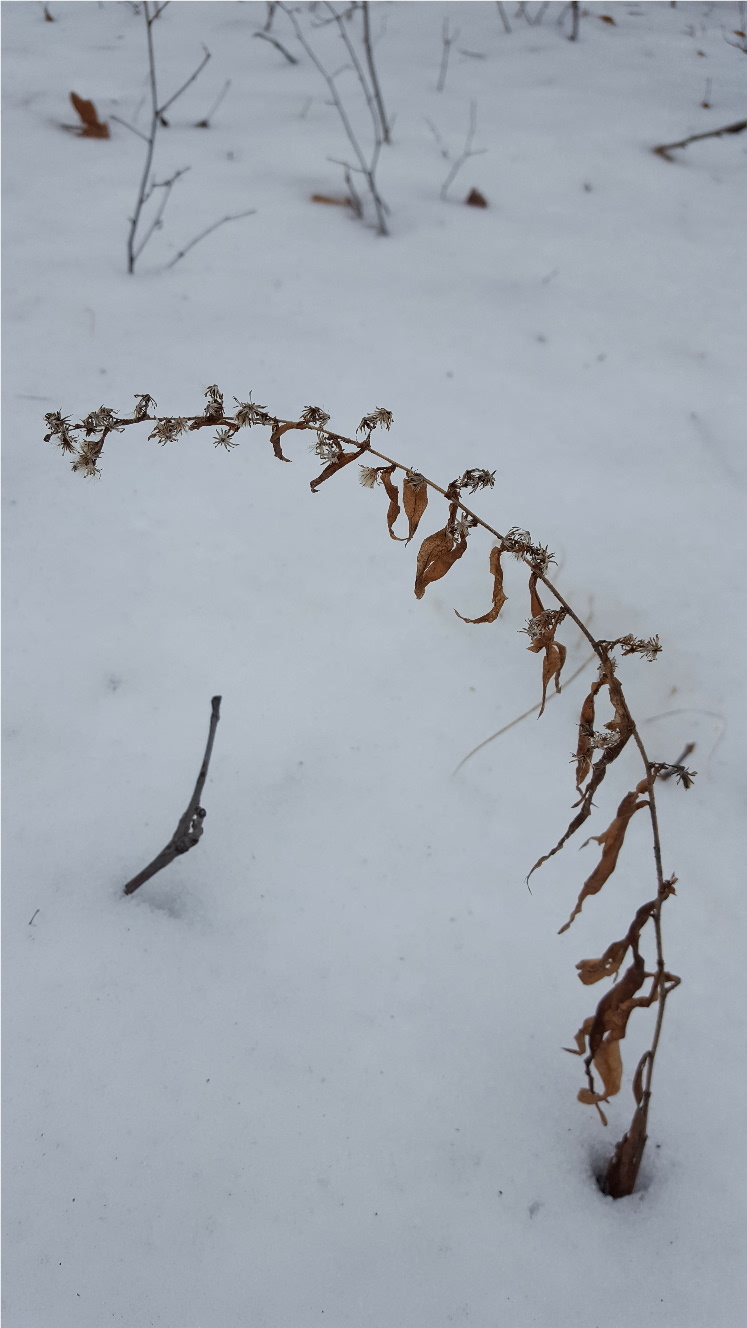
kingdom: Plantae
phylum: Tracheophyta
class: Magnoliopsida
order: Asterales
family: Asteraceae
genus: Solidago
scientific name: Solidago caesia
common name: Woodland goldenrod
